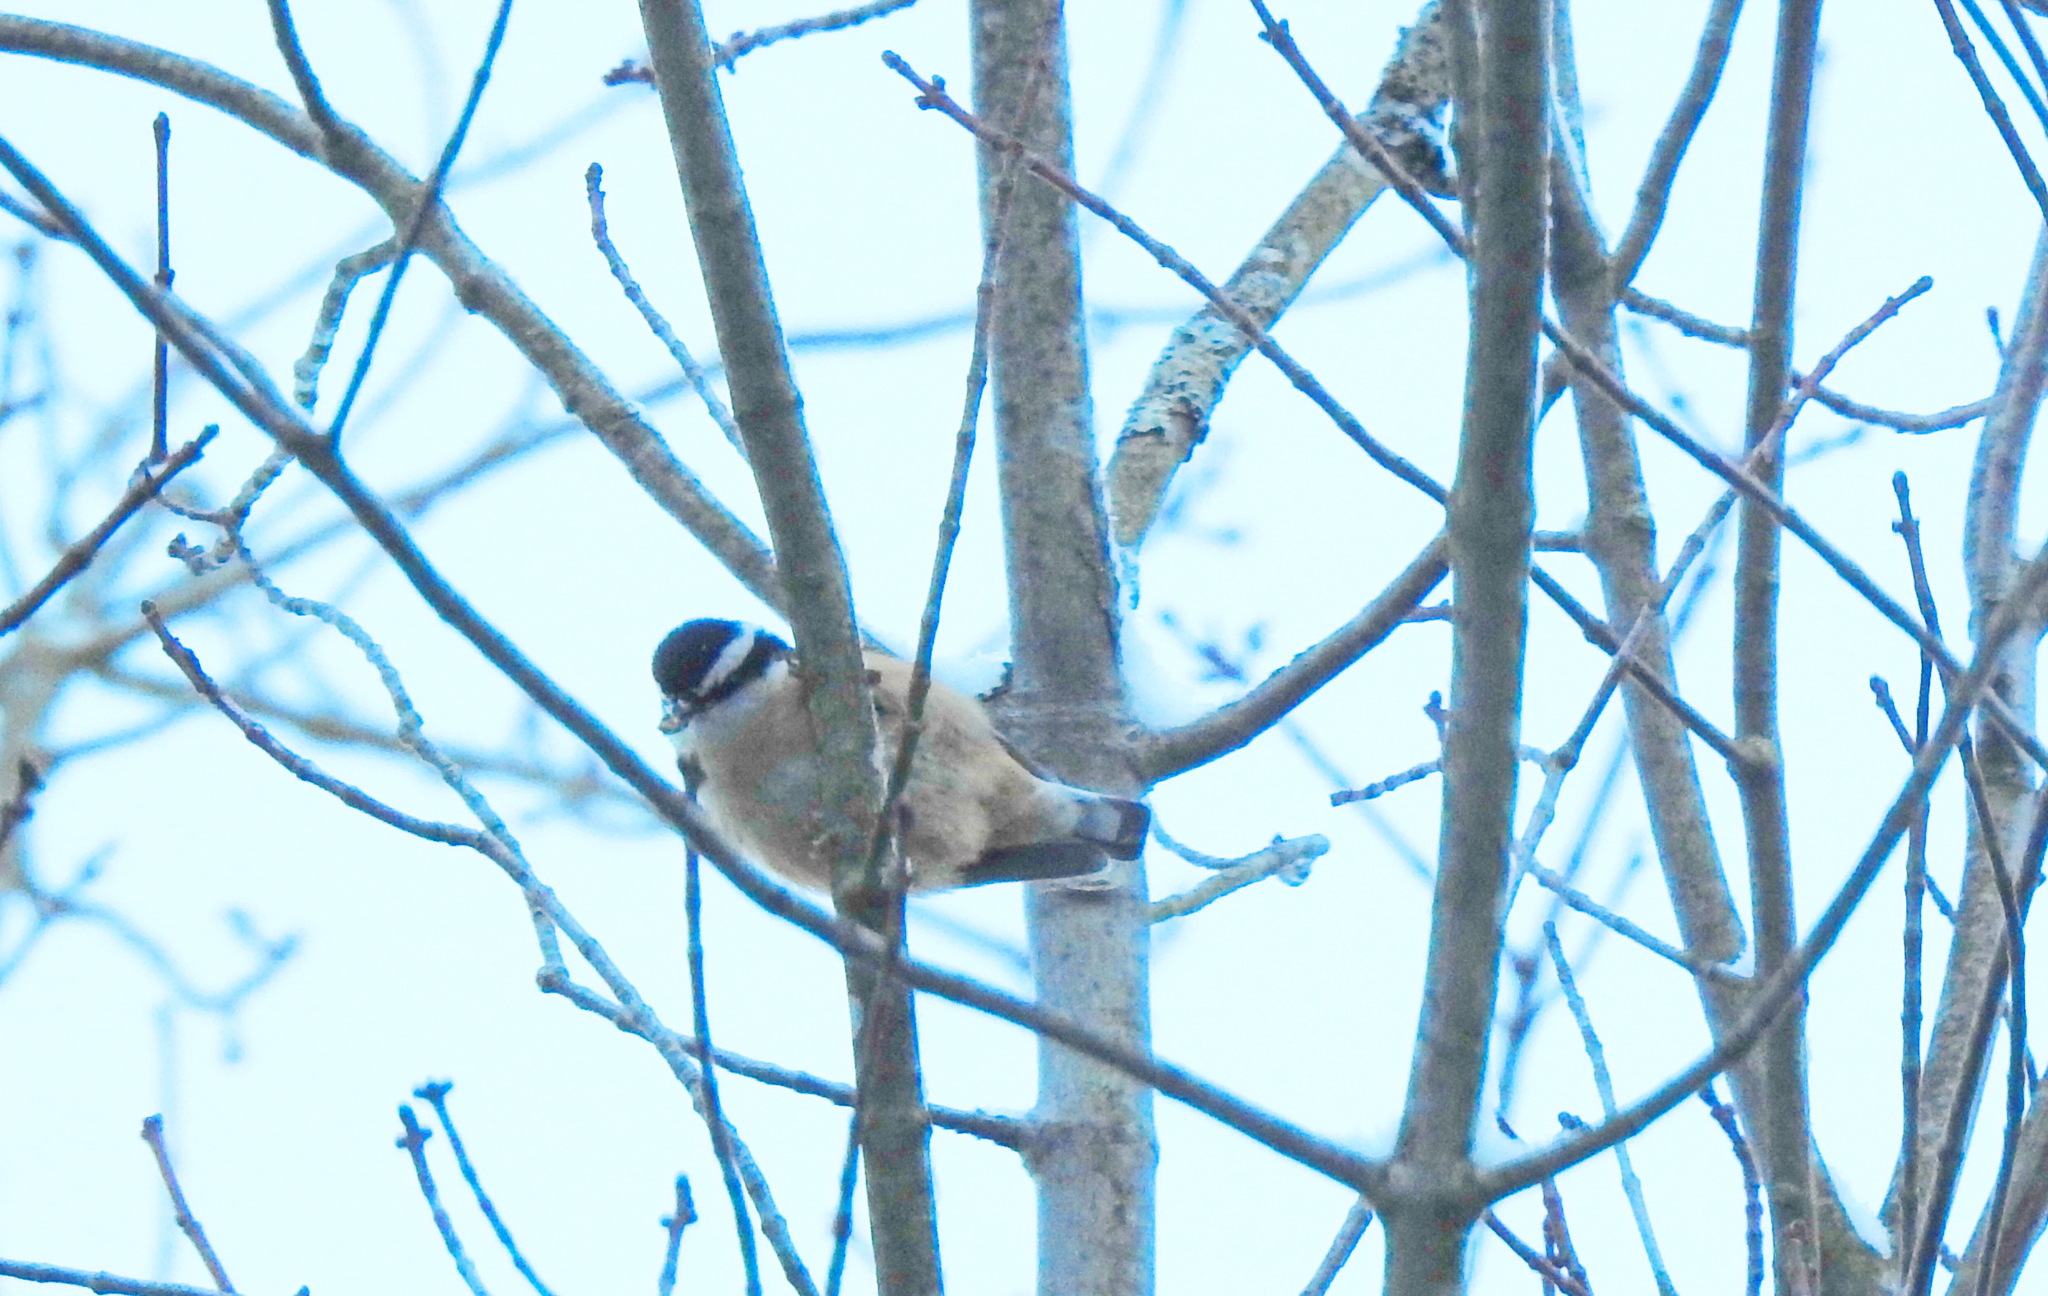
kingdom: Animalia
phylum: Chordata
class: Aves
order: Passeriformes
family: Sittidae
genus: Sitta
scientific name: Sitta canadensis
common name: Red-breasted nuthatch
